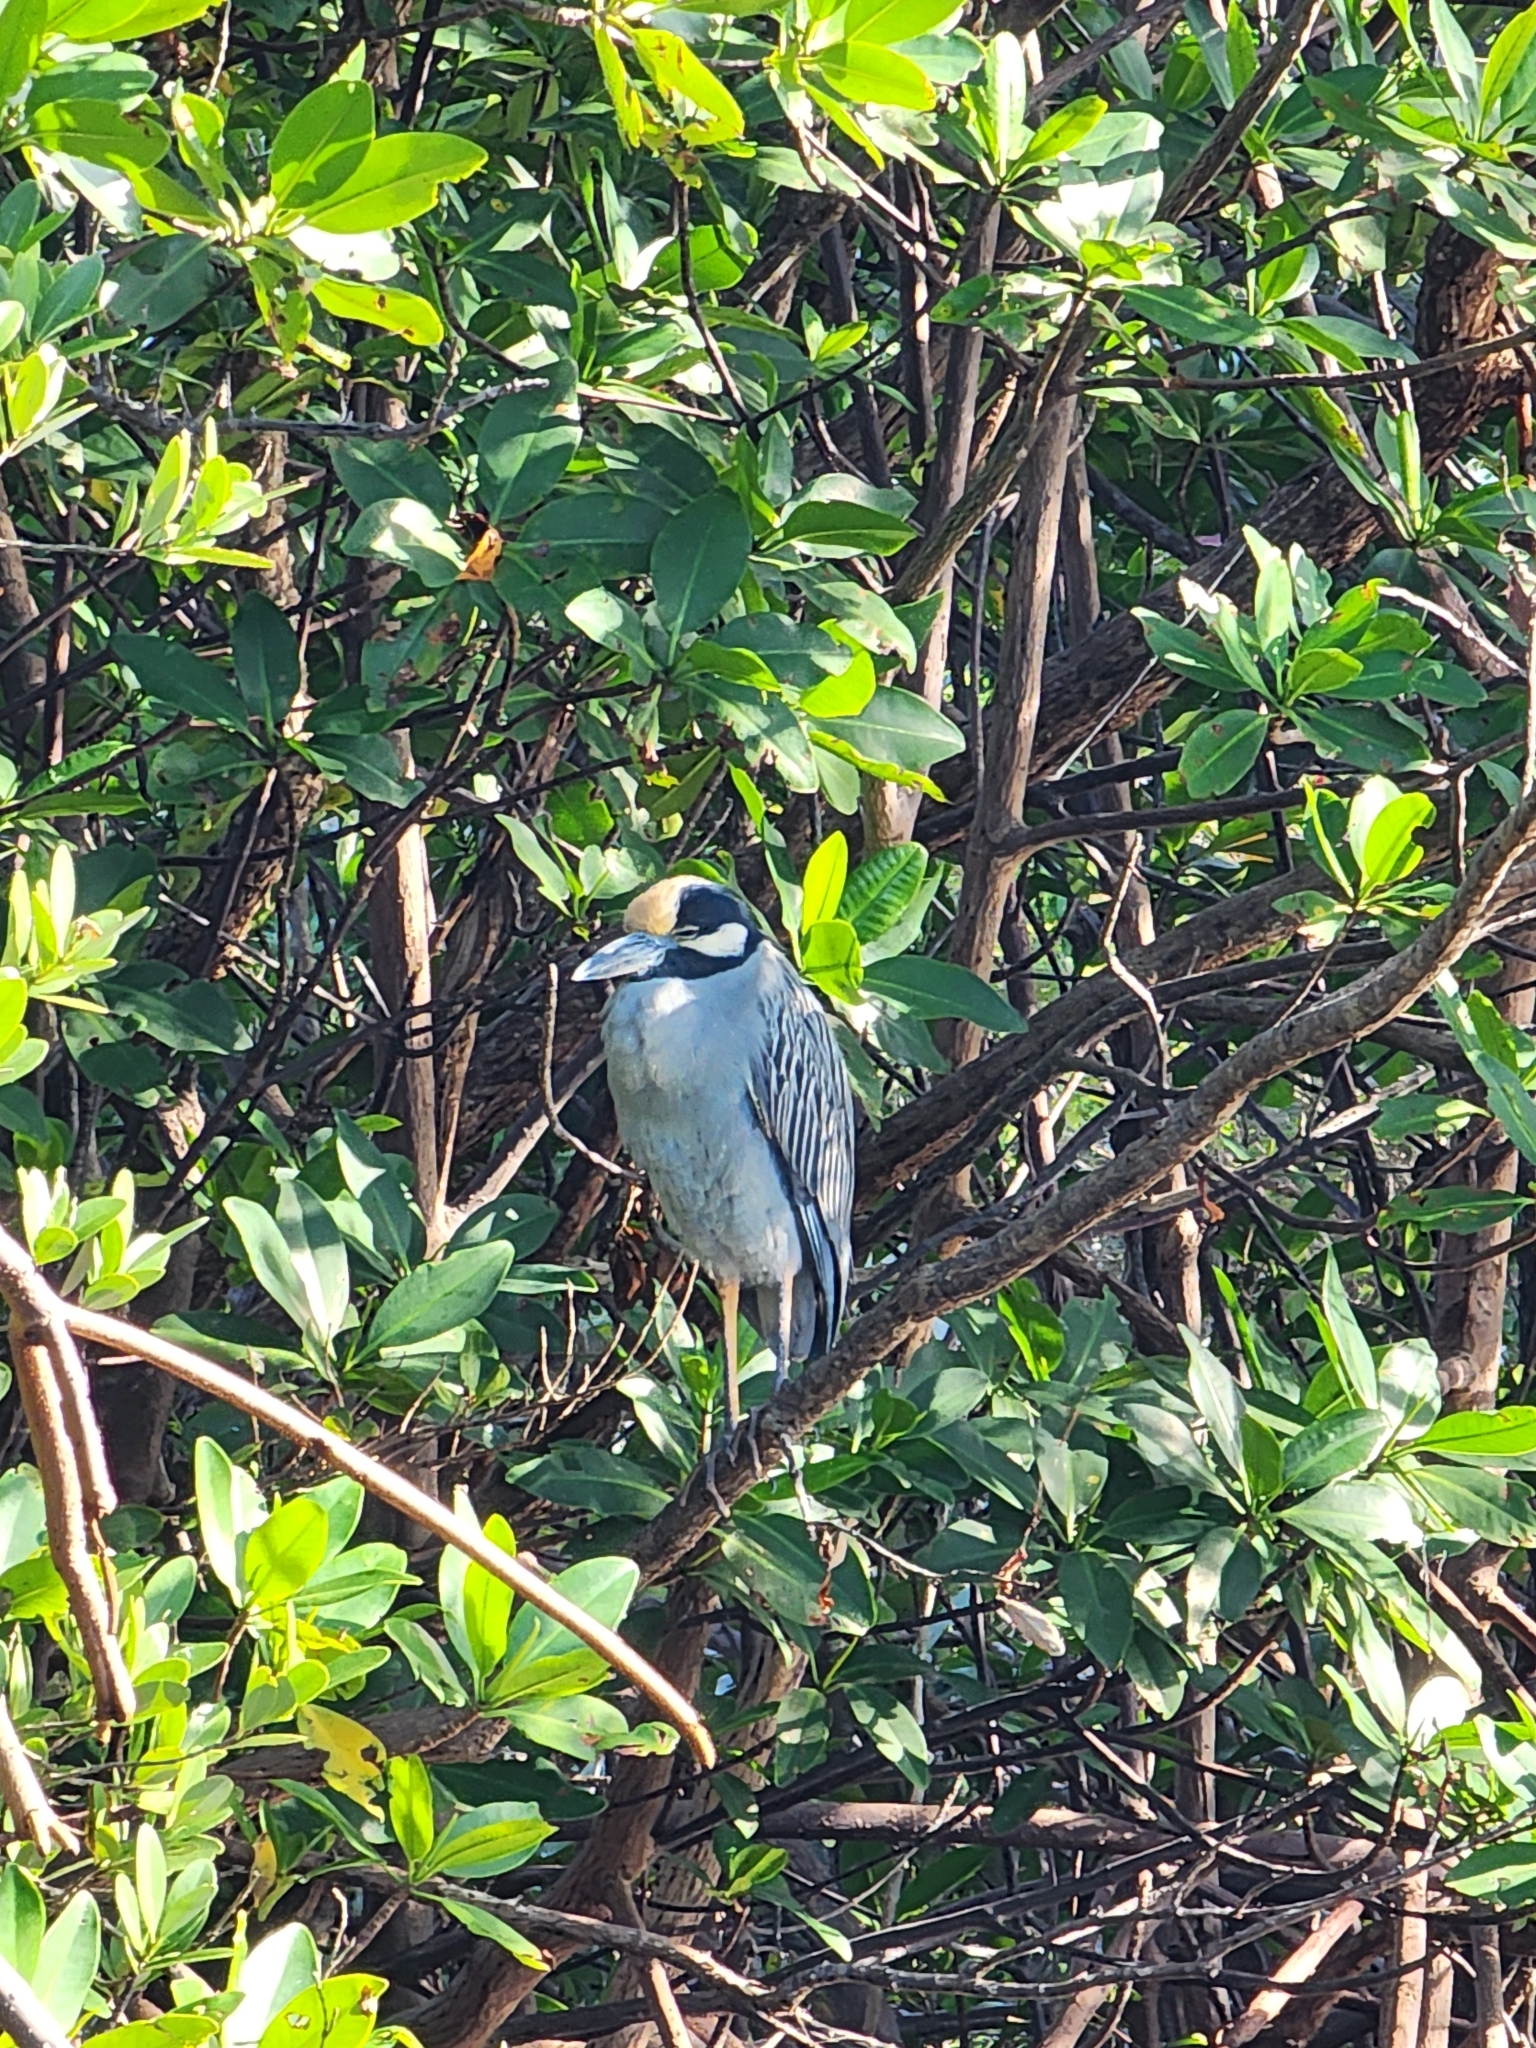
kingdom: Animalia
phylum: Chordata
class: Aves
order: Pelecaniformes
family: Ardeidae
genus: Nyctanassa
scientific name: Nyctanassa violacea
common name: Yellow-crowned night heron
